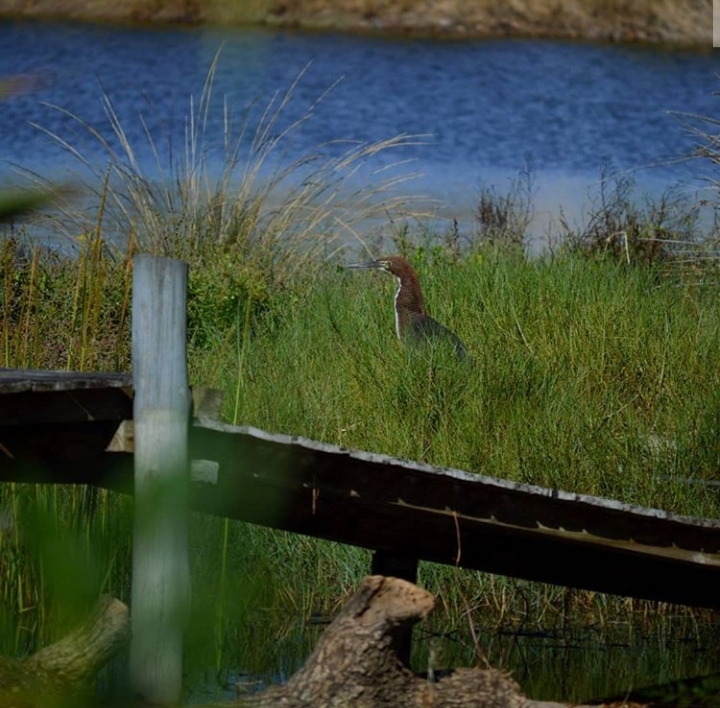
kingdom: Animalia
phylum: Chordata
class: Aves
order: Pelecaniformes
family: Ardeidae
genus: Tigrisoma
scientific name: Tigrisoma lineatum
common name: Rufescent tiger-heron
